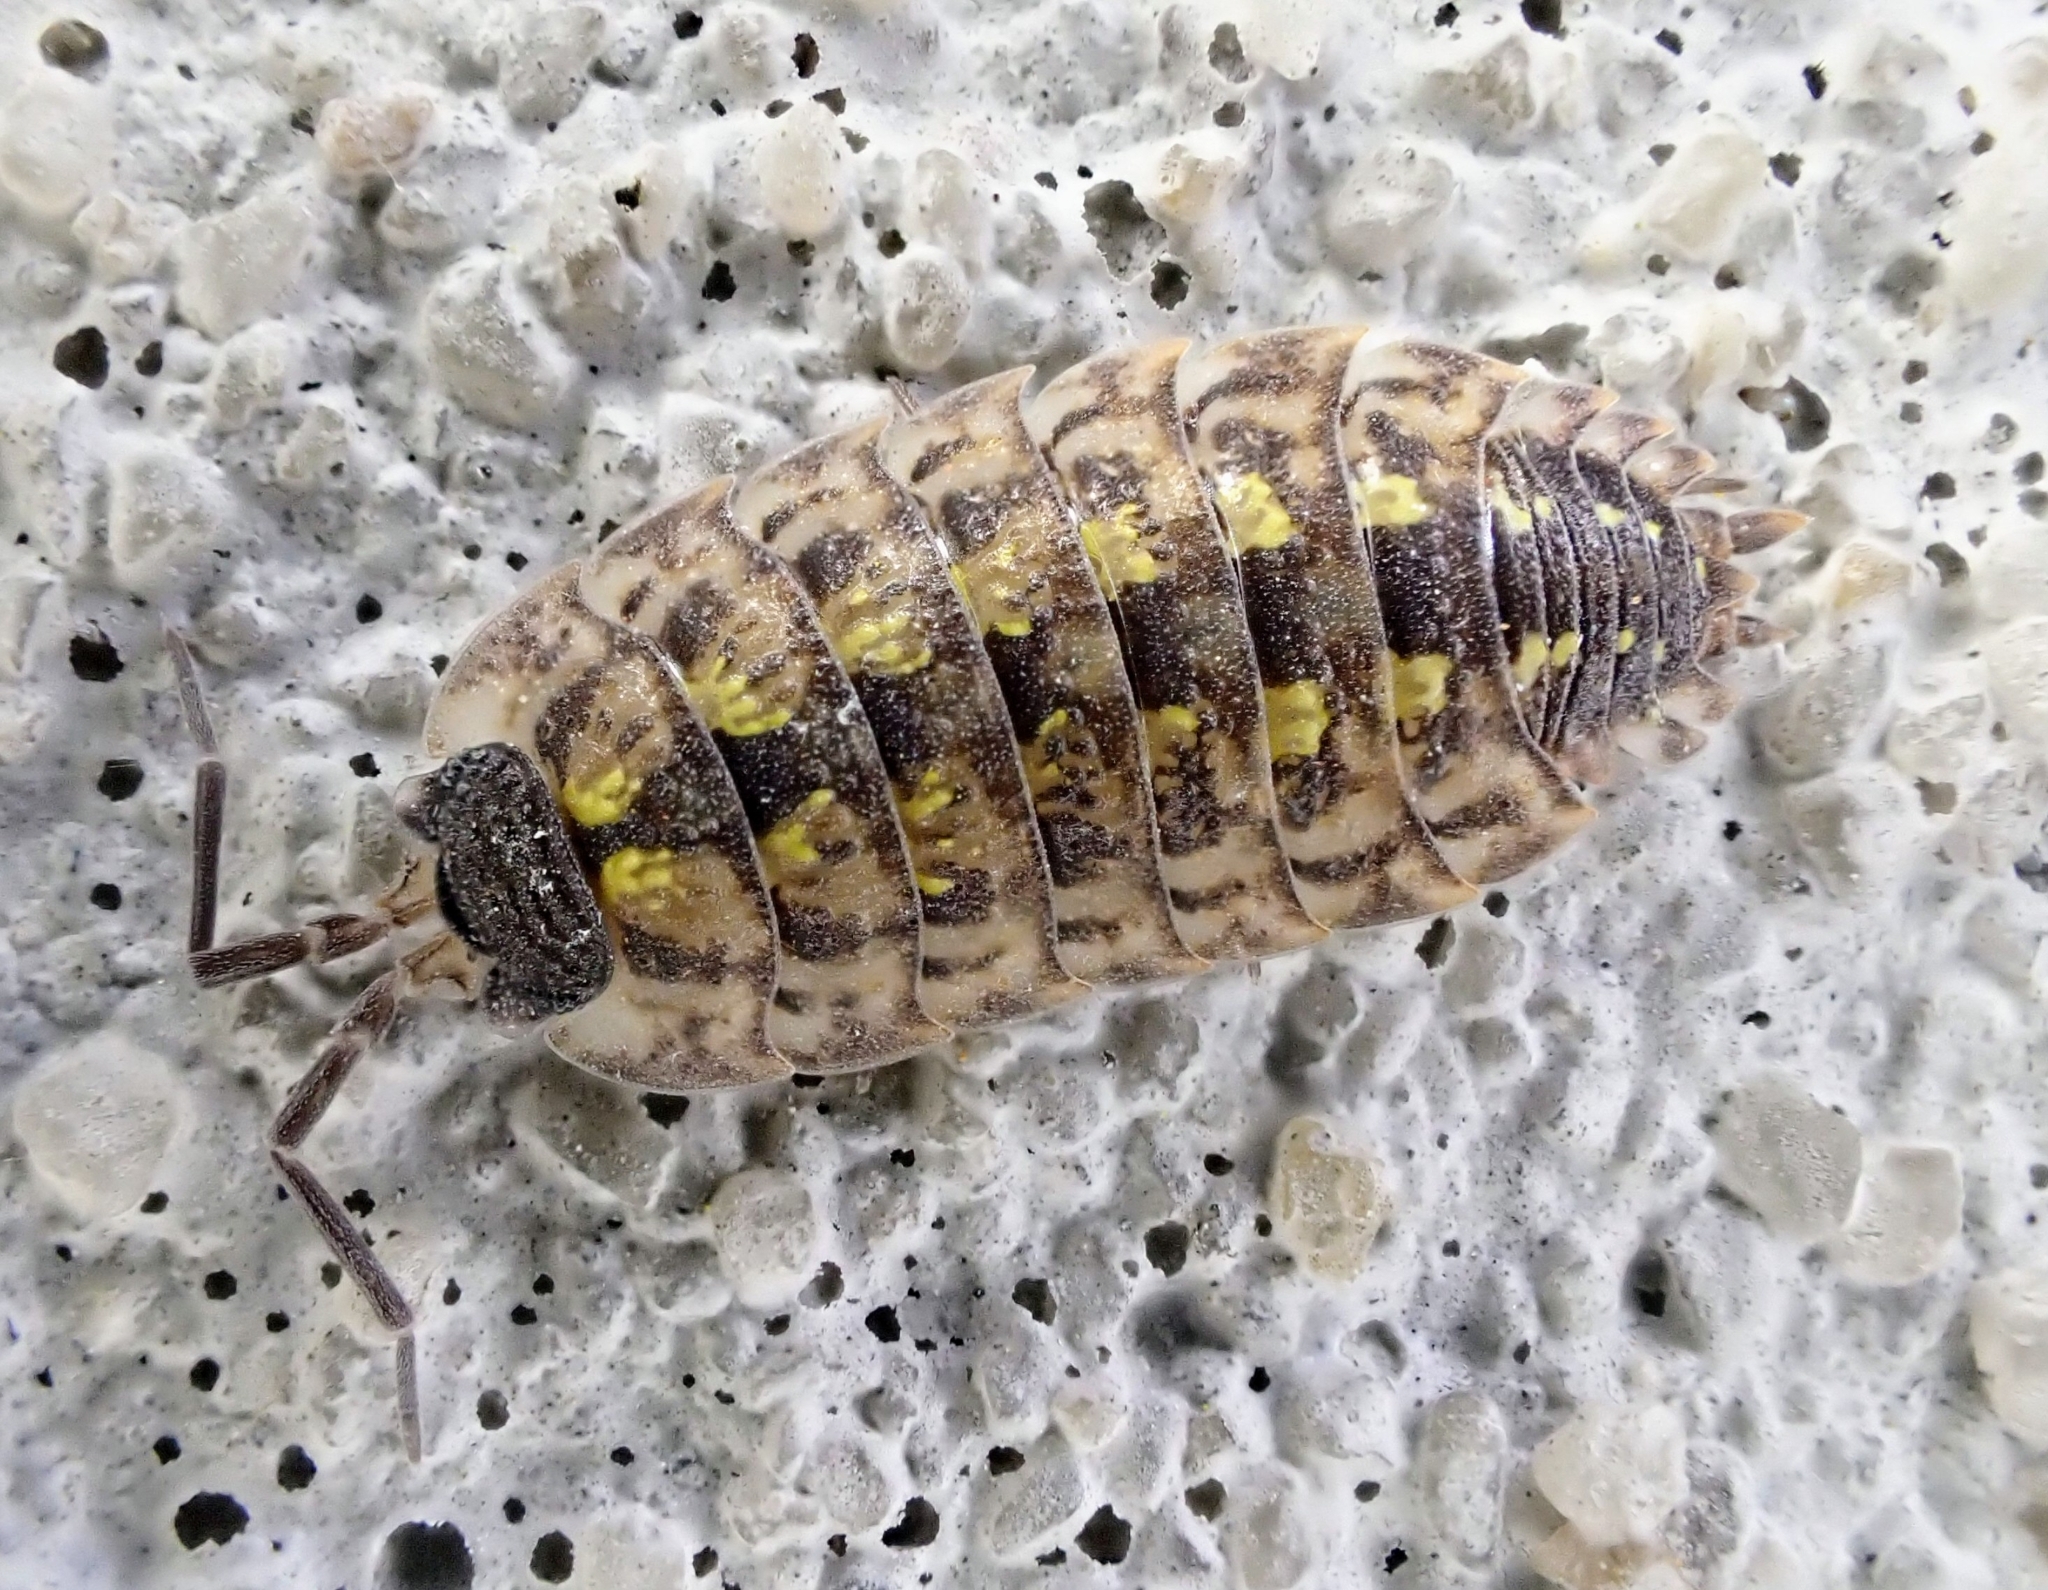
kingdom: Animalia
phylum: Arthropoda
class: Malacostraca
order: Isopoda
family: Porcellionidae
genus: Porcellio
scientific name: Porcellio spinicornis
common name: Painted woodlouse
